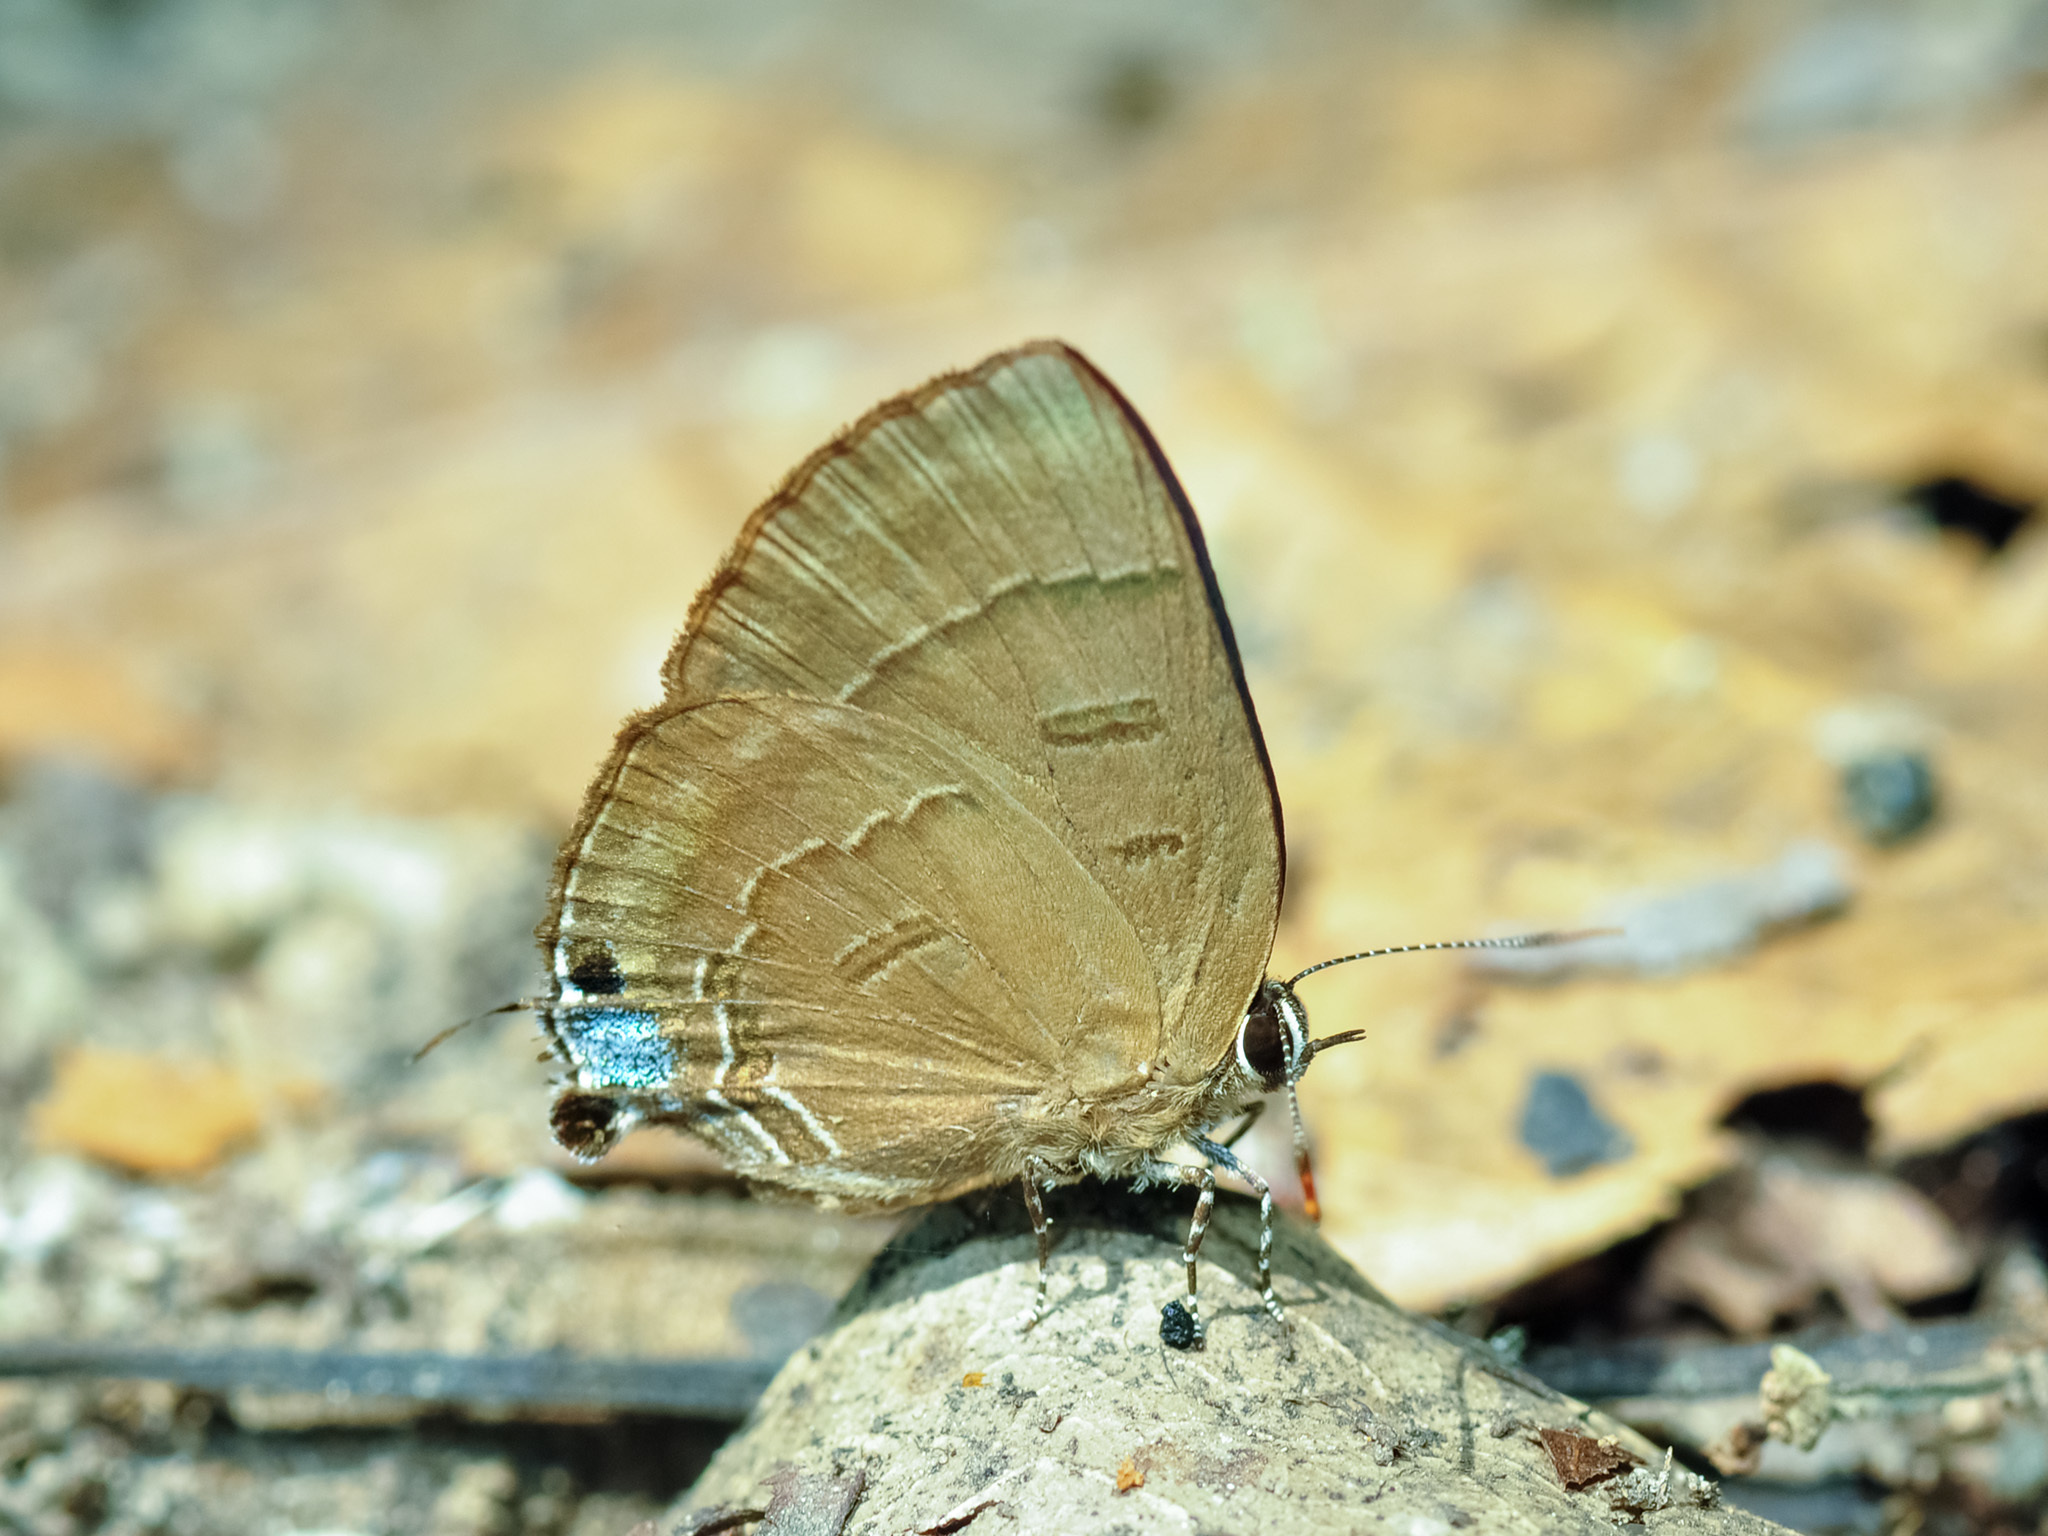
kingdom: Animalia
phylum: Arthropoda
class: Insecta
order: Lepidoptera
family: Lycaenidae
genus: Rapala
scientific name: Rapala pheretima
